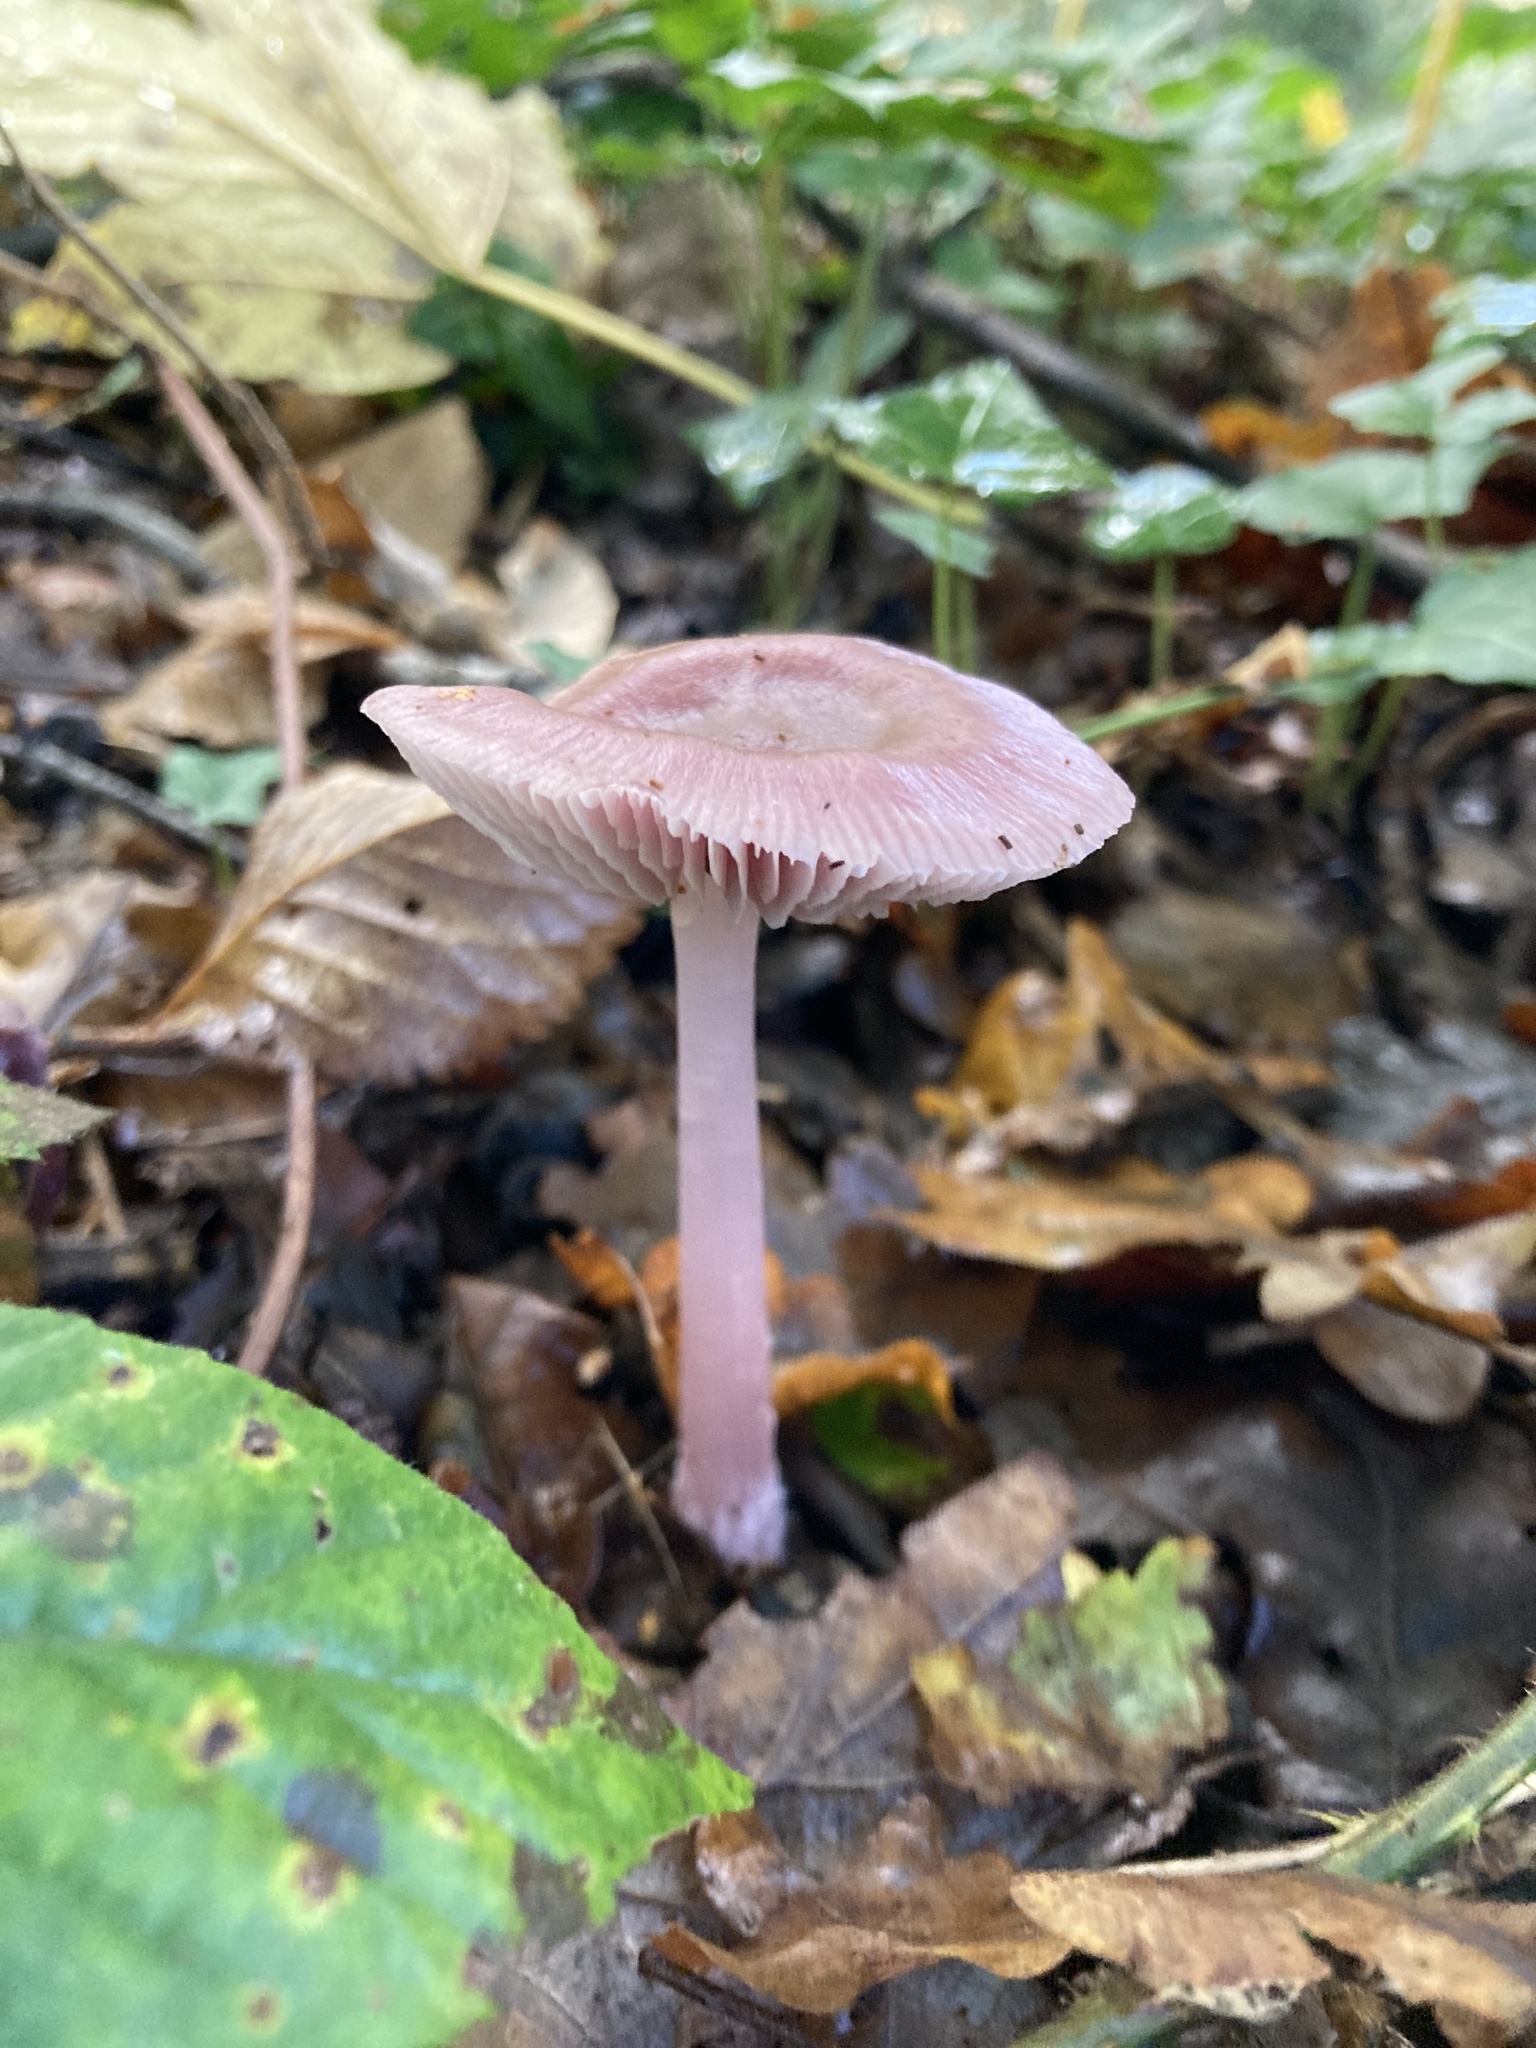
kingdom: Fungi
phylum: Basidiomycota
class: Agaricomycetes
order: Agaricales
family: Mycenaceae
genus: Mycena
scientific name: Mycena rosea
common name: Rosy bonnet
